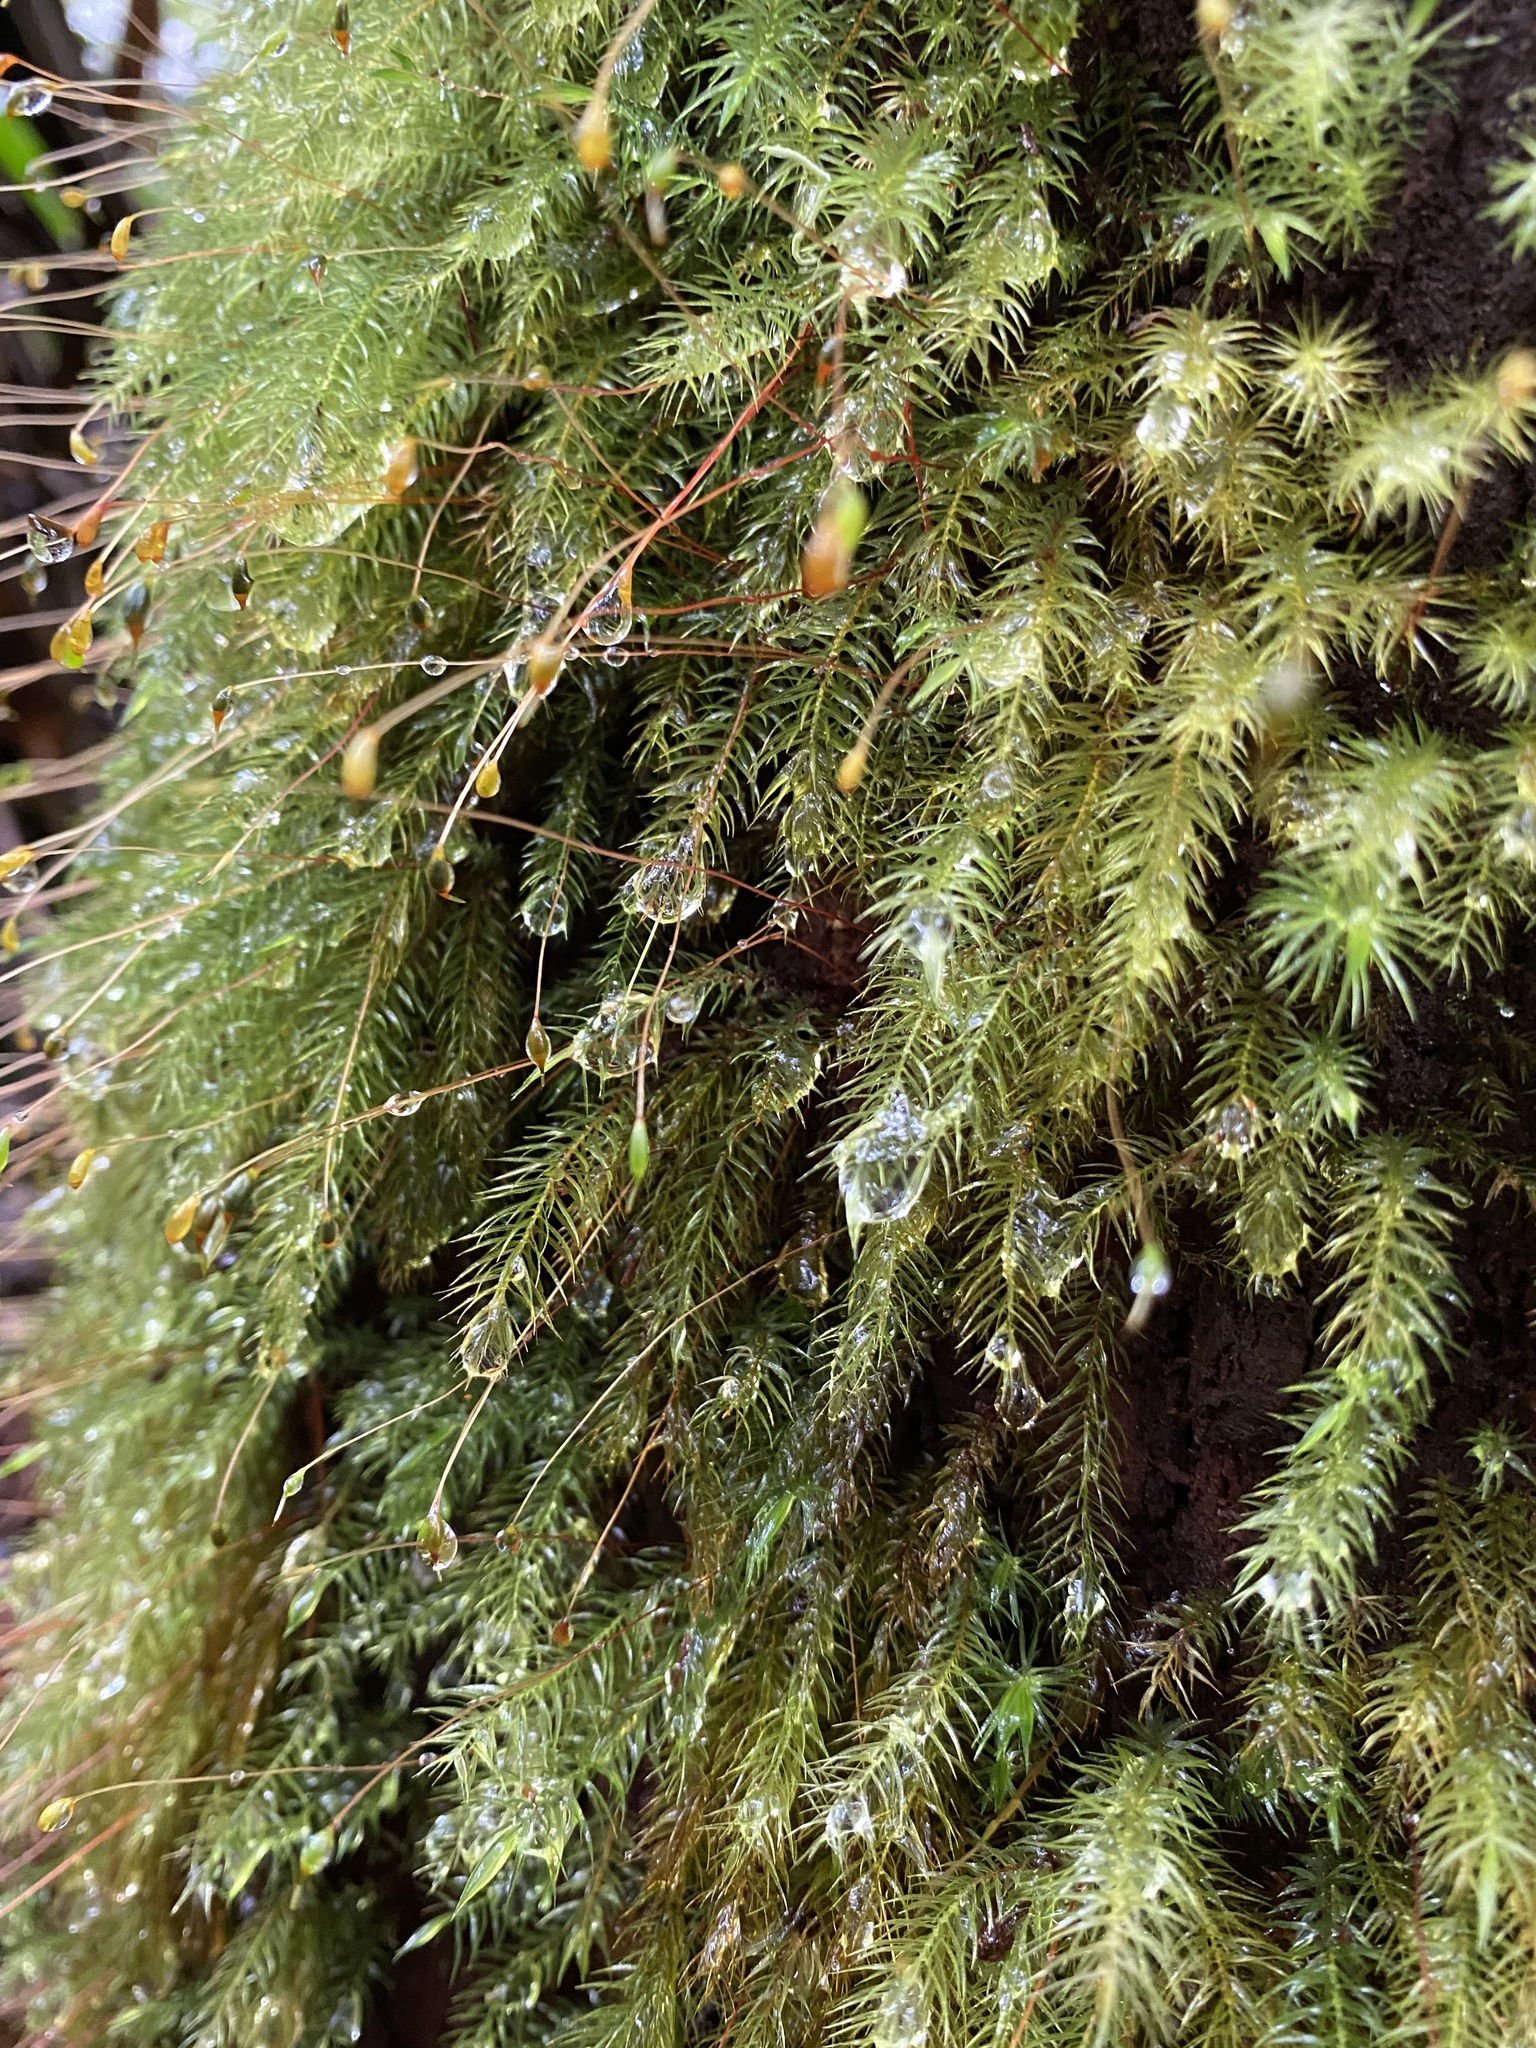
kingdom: Plantae
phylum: Bryophyta
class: Bryopsida
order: Rhizogoniales
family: Calomniaceae
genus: Pyrrhobryum
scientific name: Pyrrhobryum spiniforme
